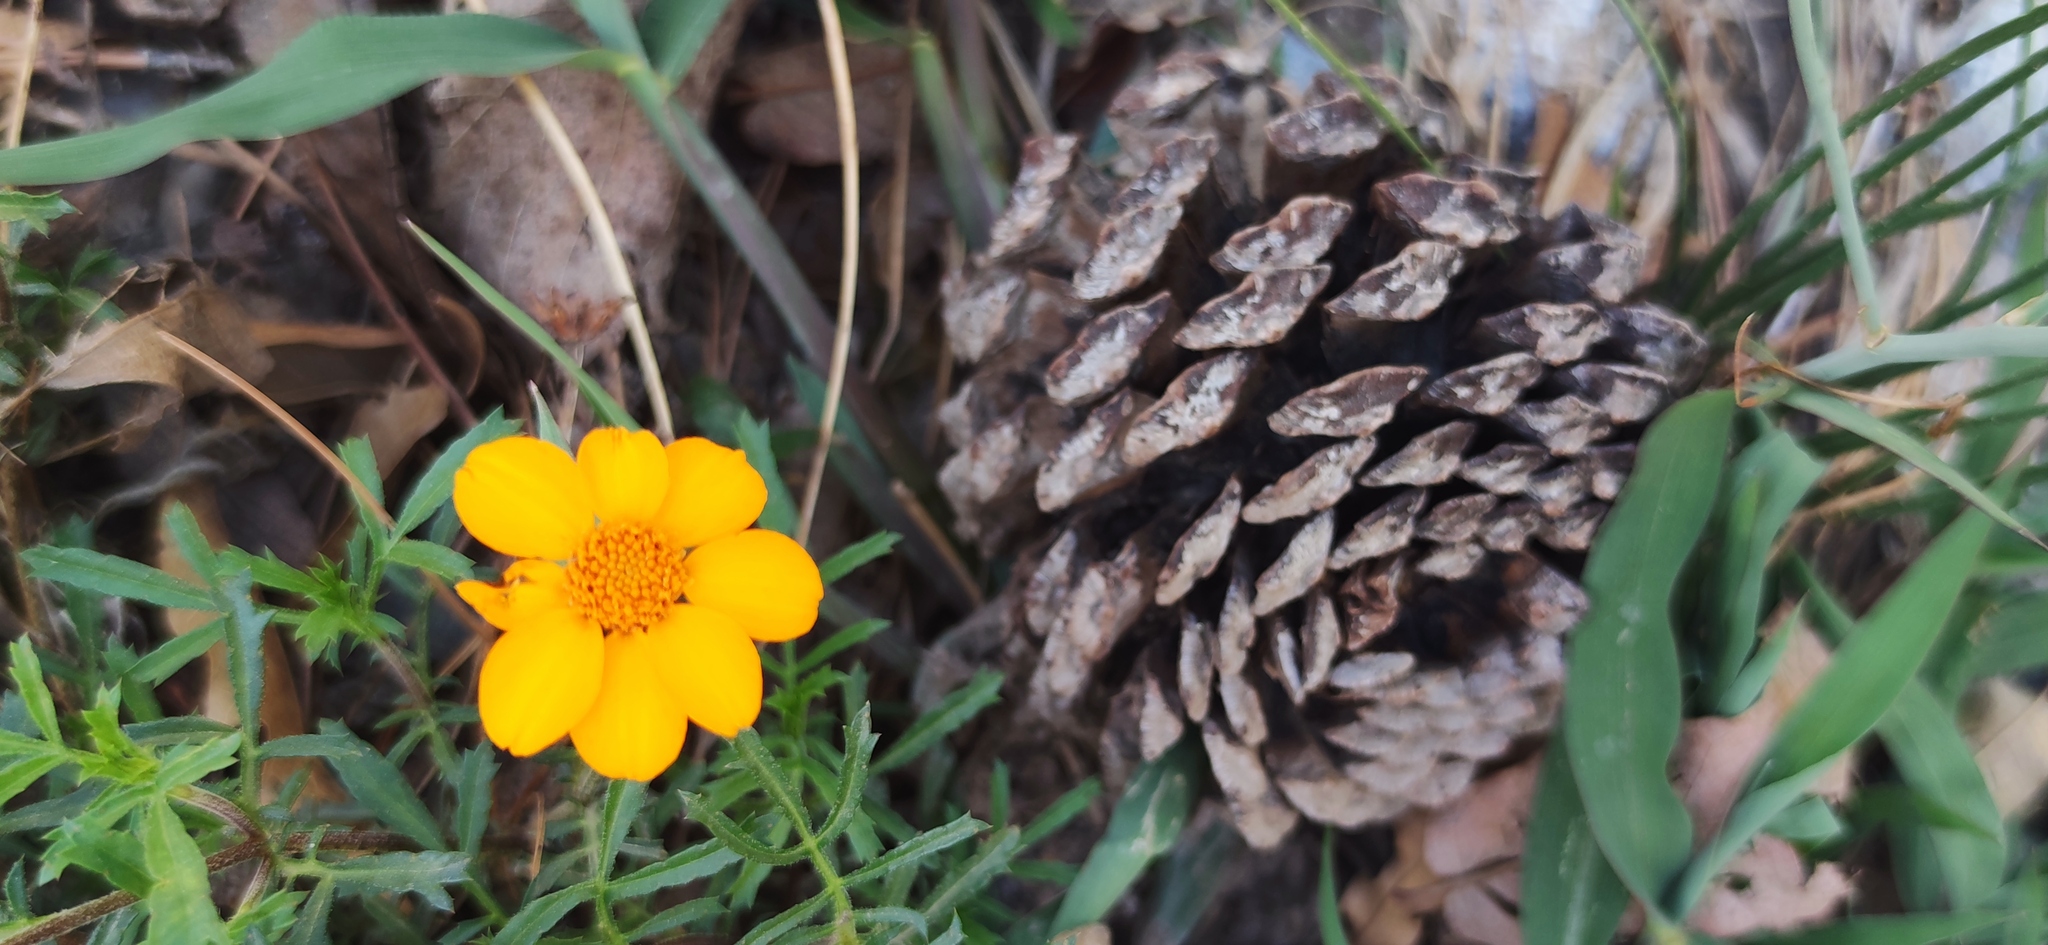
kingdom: Plantae
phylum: Tracheophyta
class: Magnoliopsida
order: Asterales
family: Asteraceae
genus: Dyssodia
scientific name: Dyssodia pinnata
